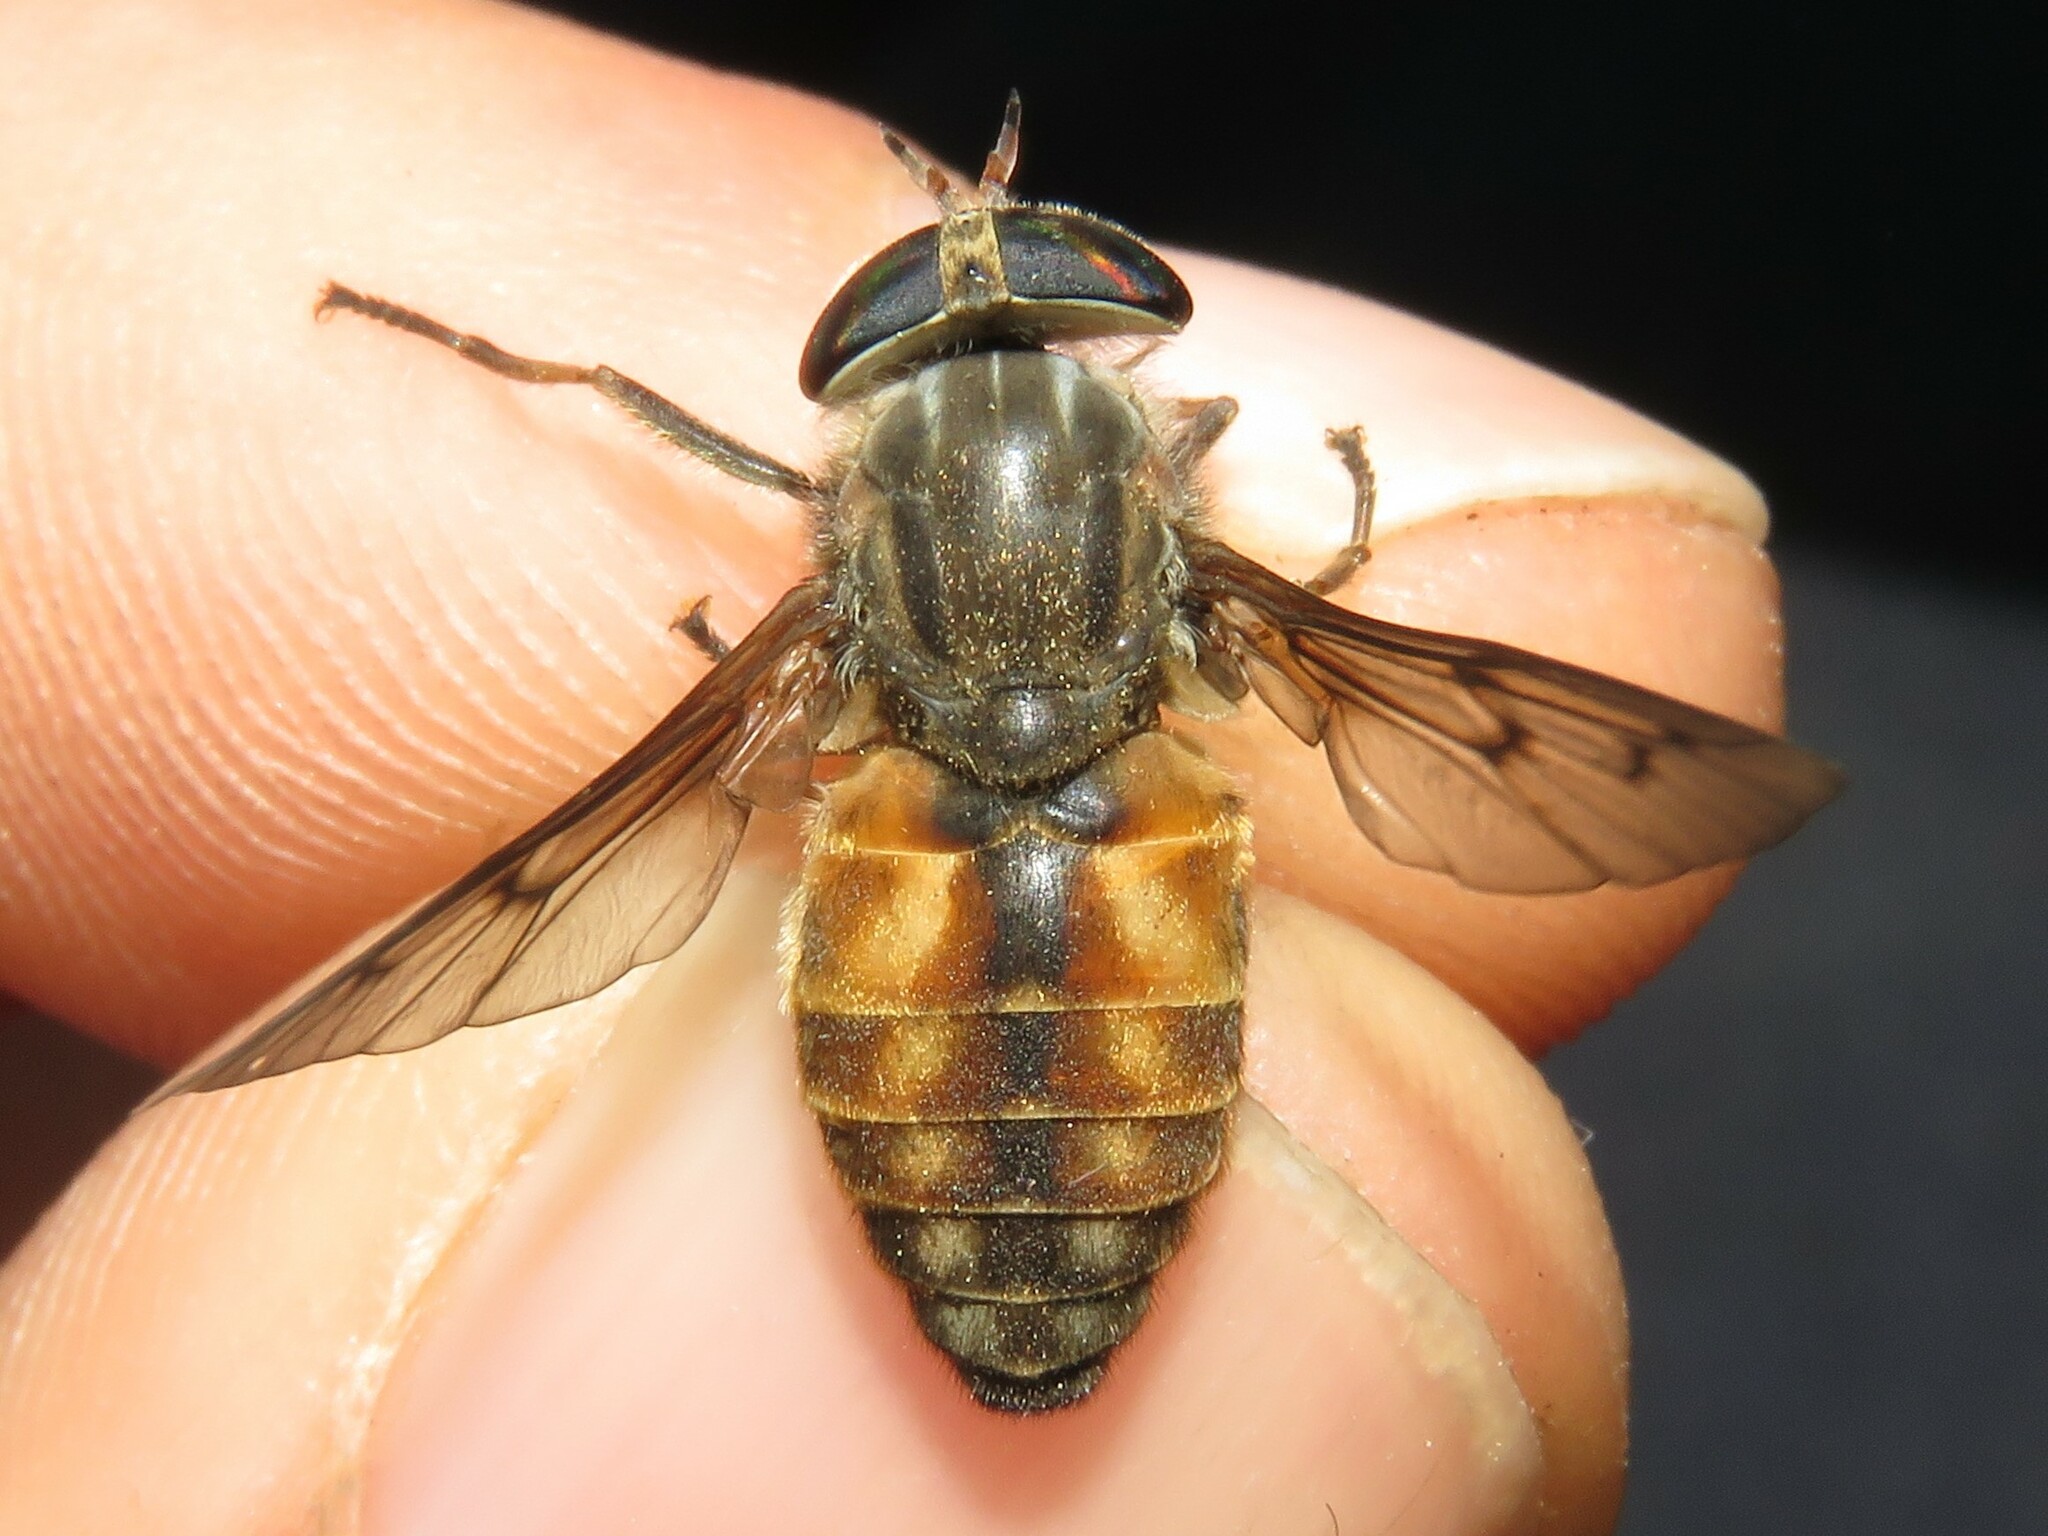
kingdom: Animalia
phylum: Arthropoda
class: Insecta
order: Diptera
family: Tabanidae
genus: Hybomitra
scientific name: Hybomitra lasiophthalma
